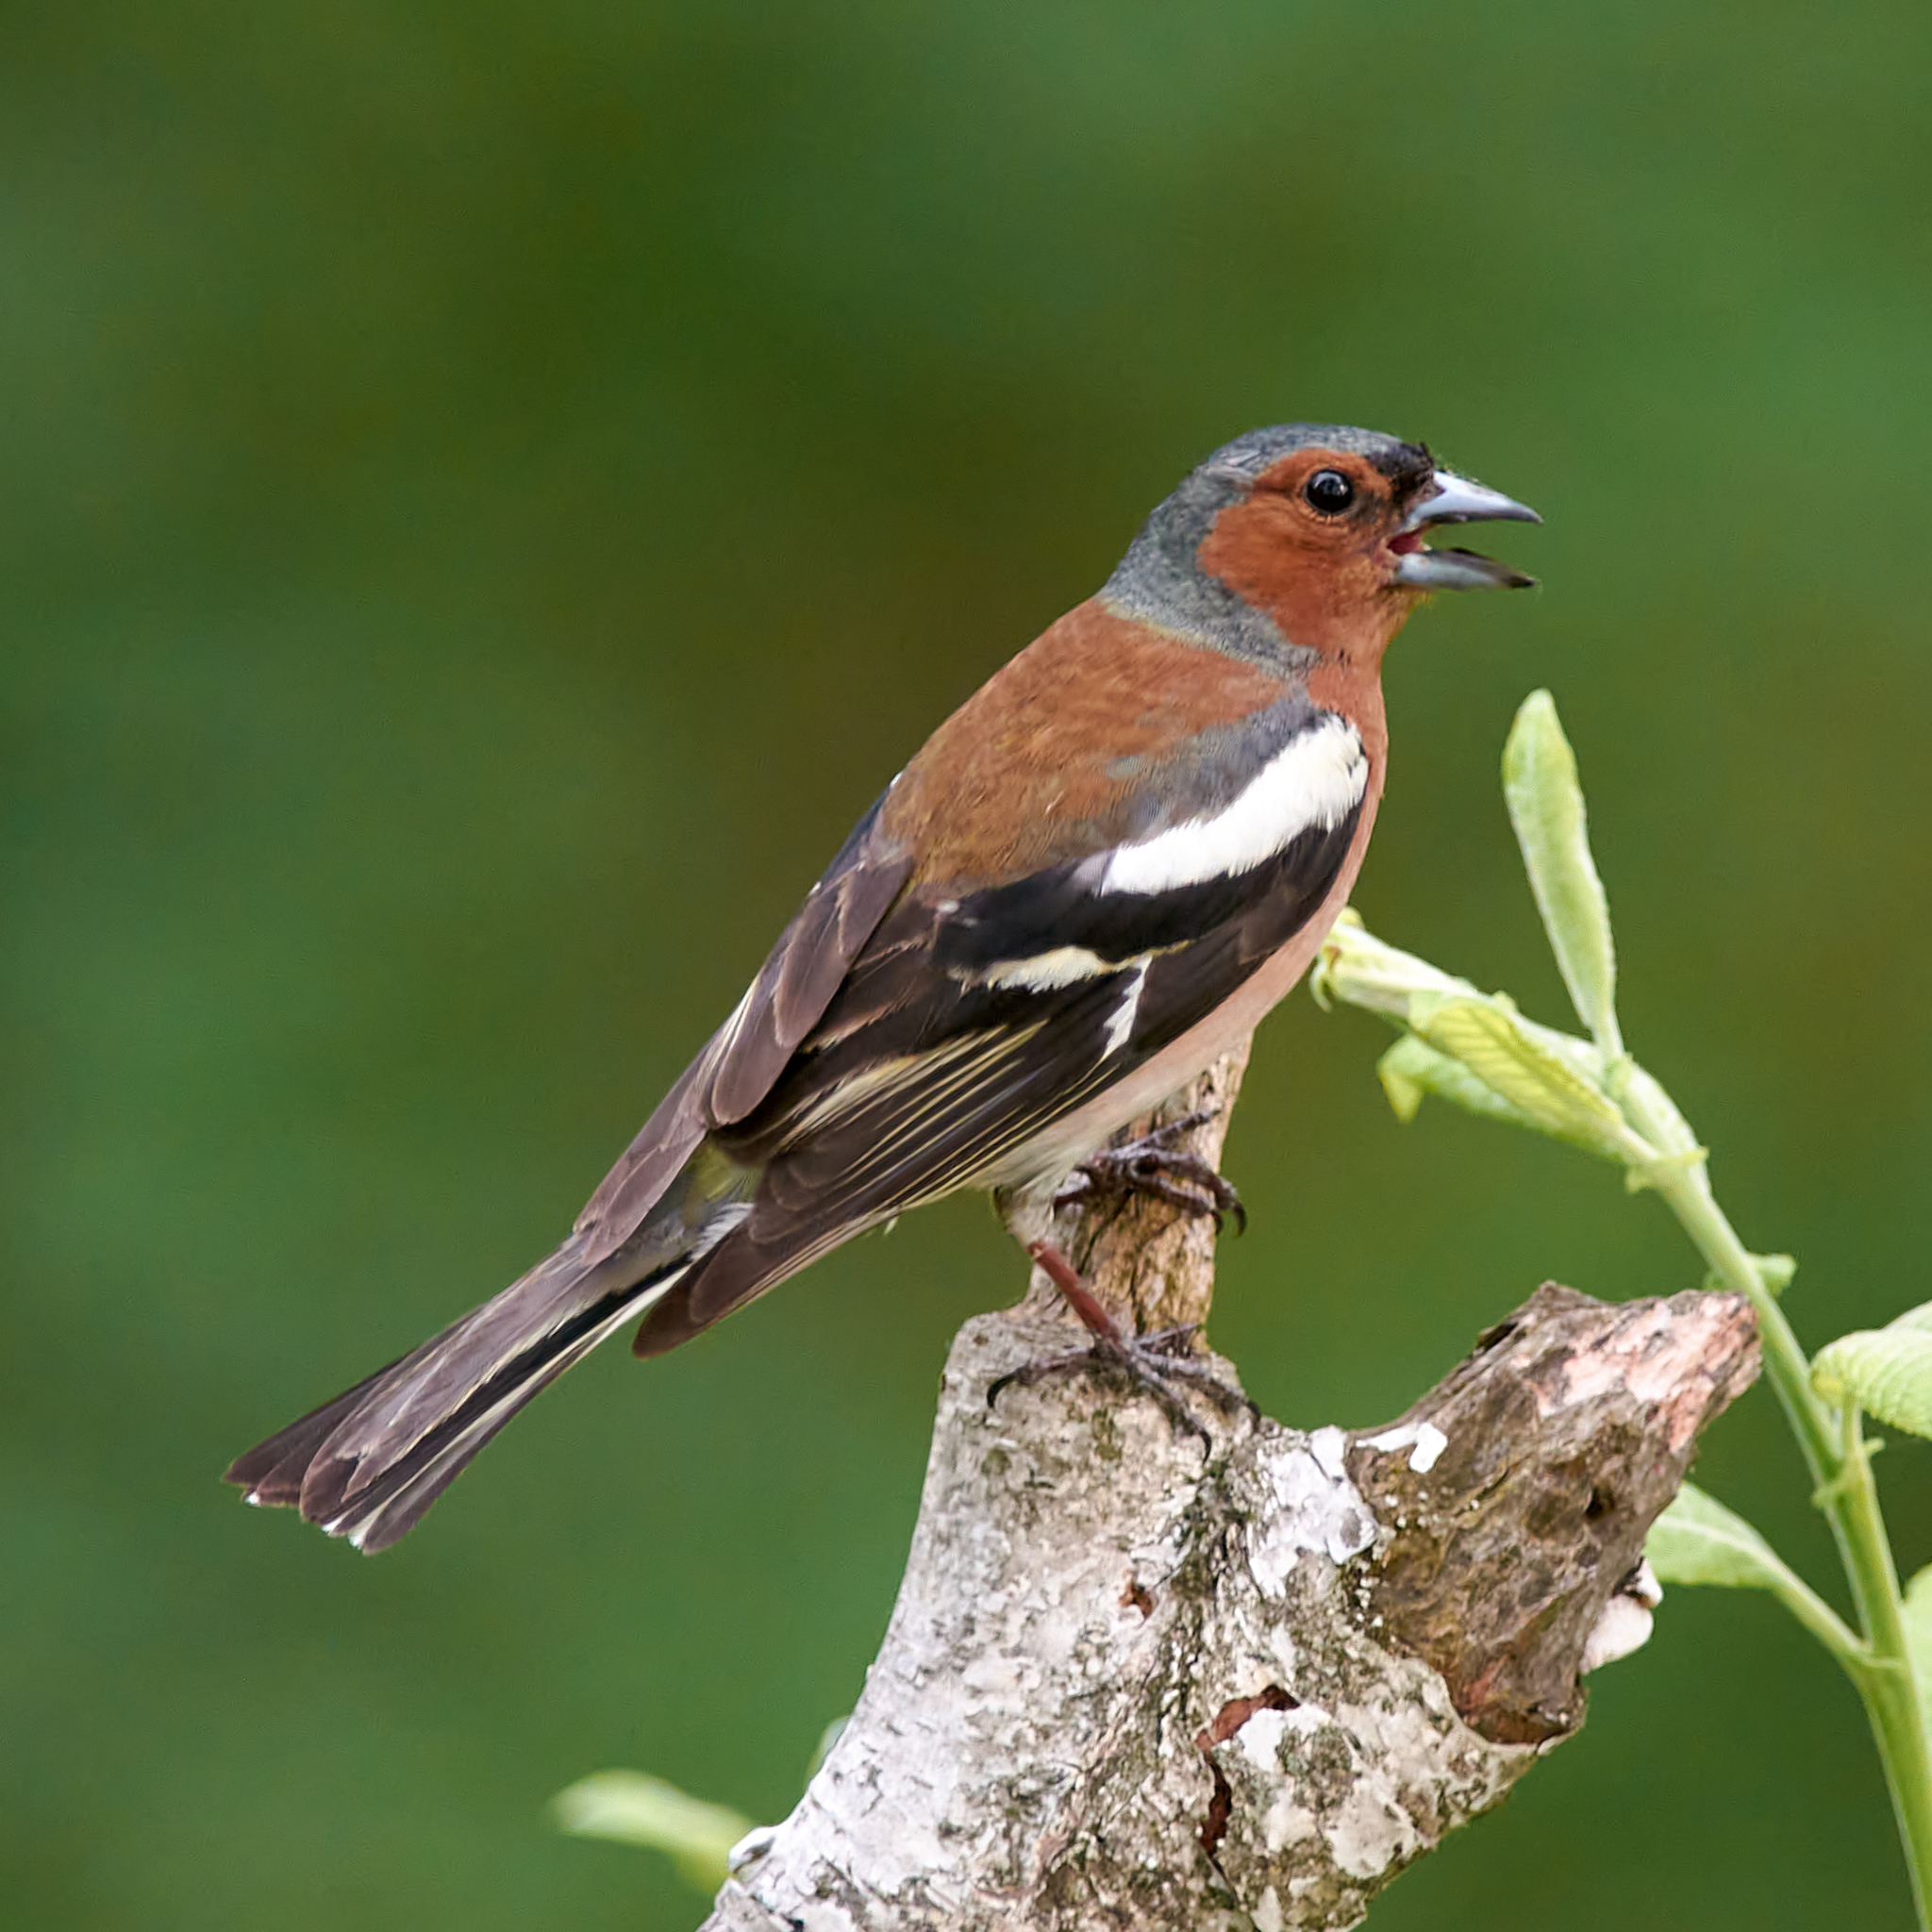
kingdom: Animalia
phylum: Chordata
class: Aves
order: Passeriformes
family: Fringillidae
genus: Fringilla
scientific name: Fringilla coelebs
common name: Common chaffinch
